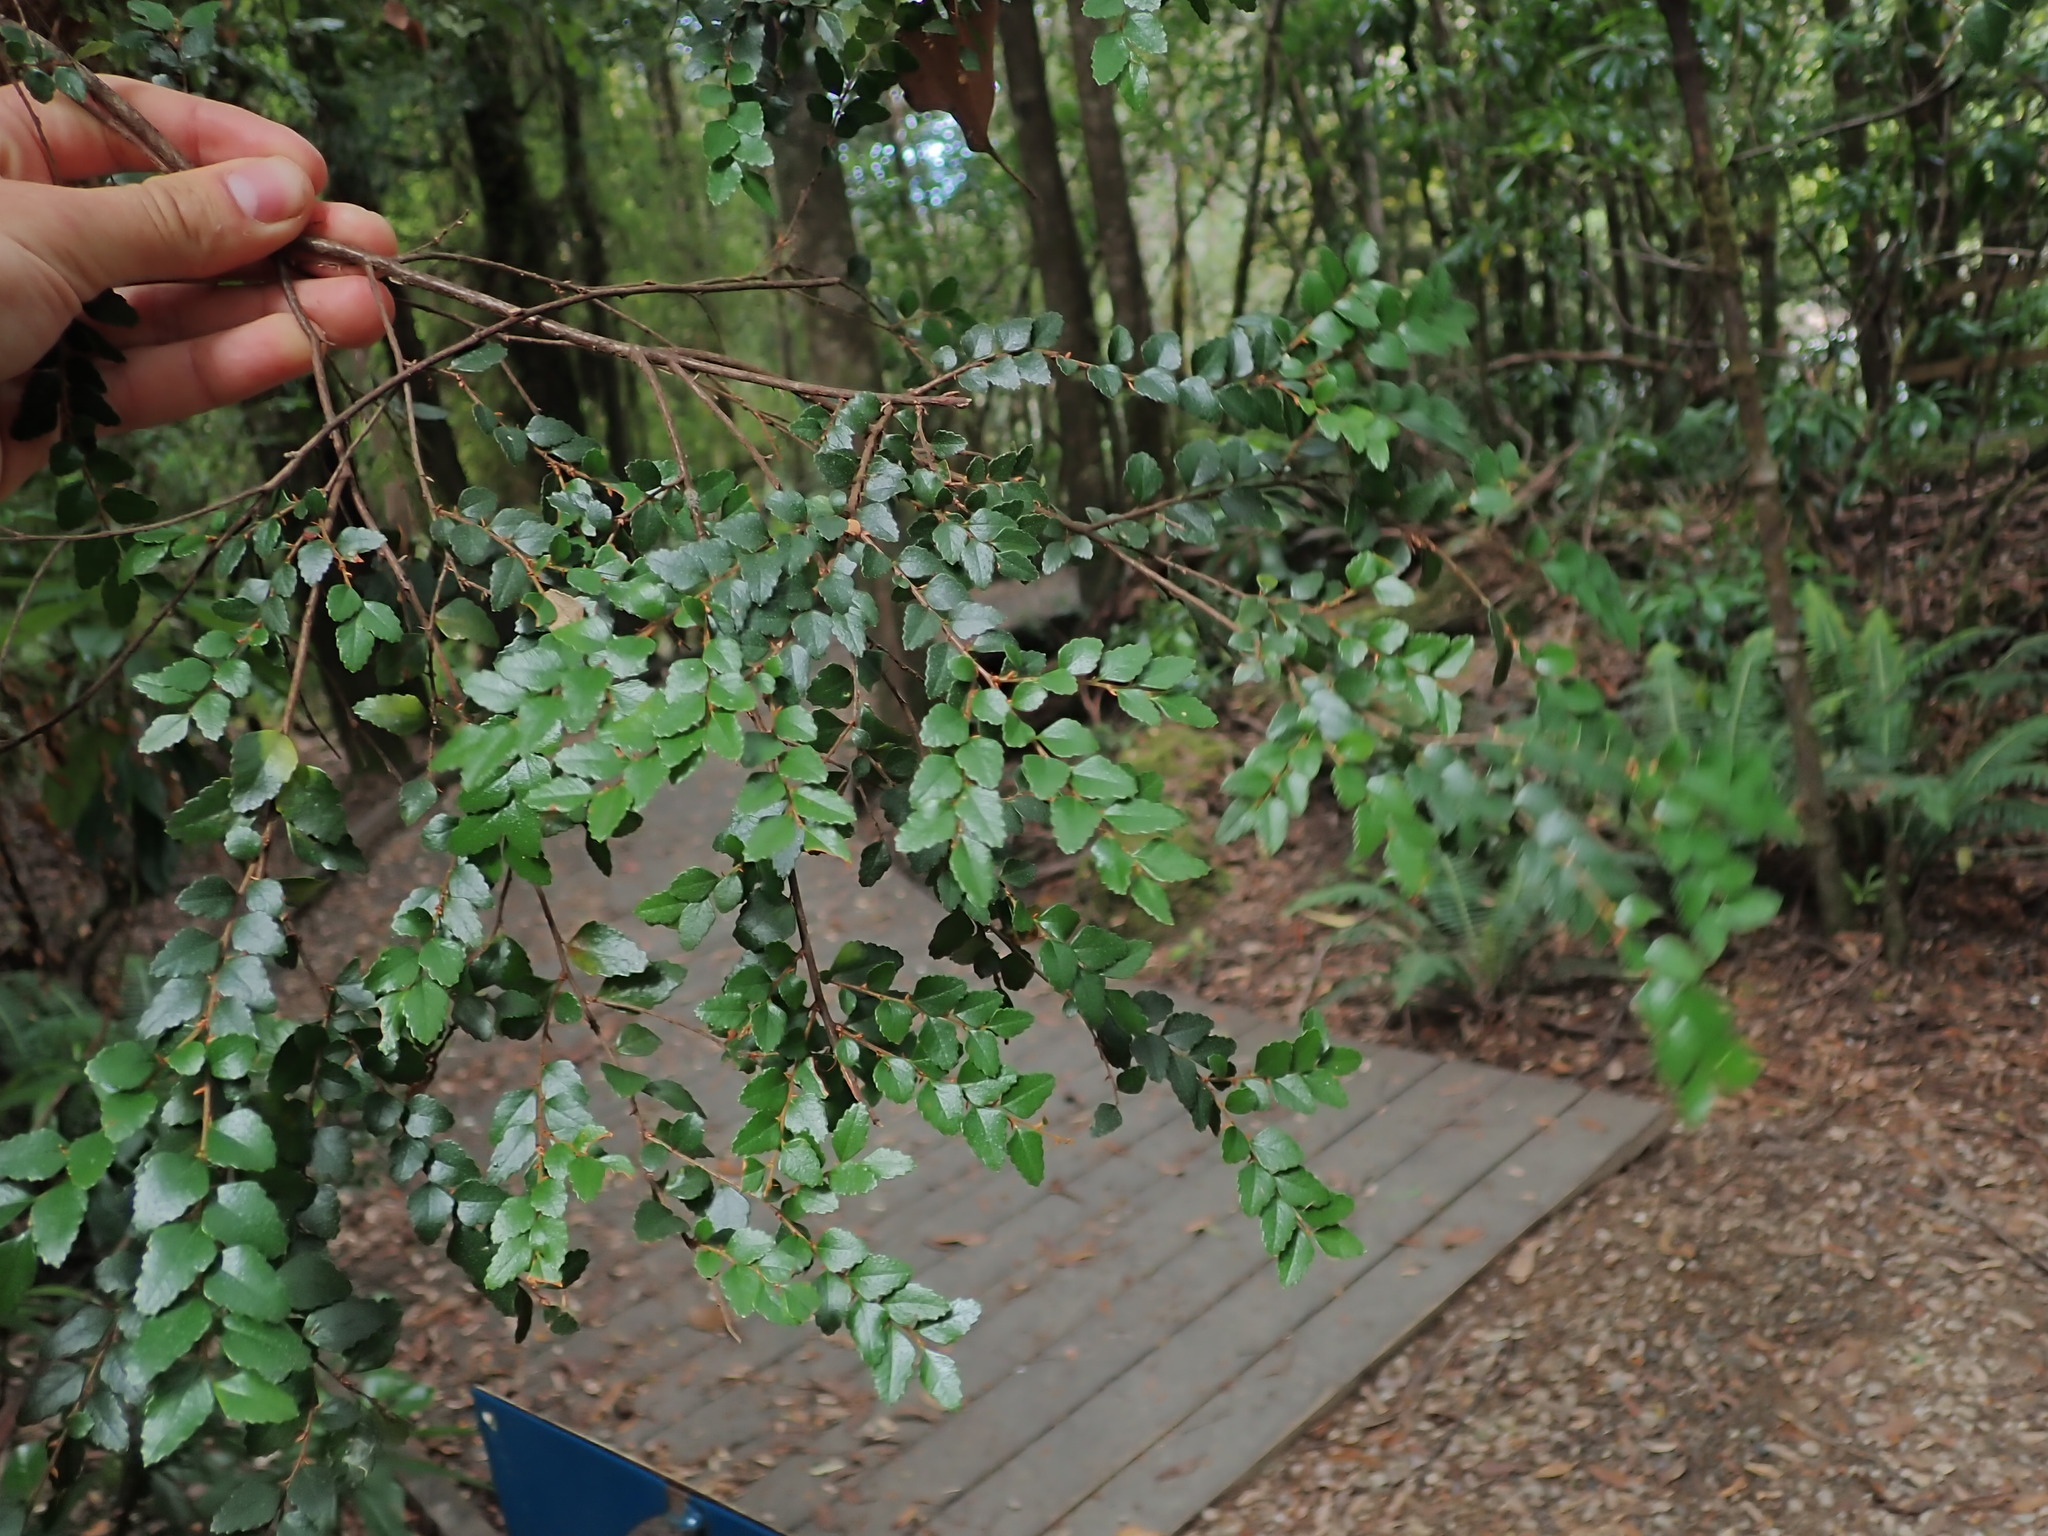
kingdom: Plantae
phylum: Tracheophyta
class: Magnoliopsida
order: Fagales
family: Nothofagaceae
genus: Nothofagus
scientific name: Nothofagus cunninghamii
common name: Myrtle beech
